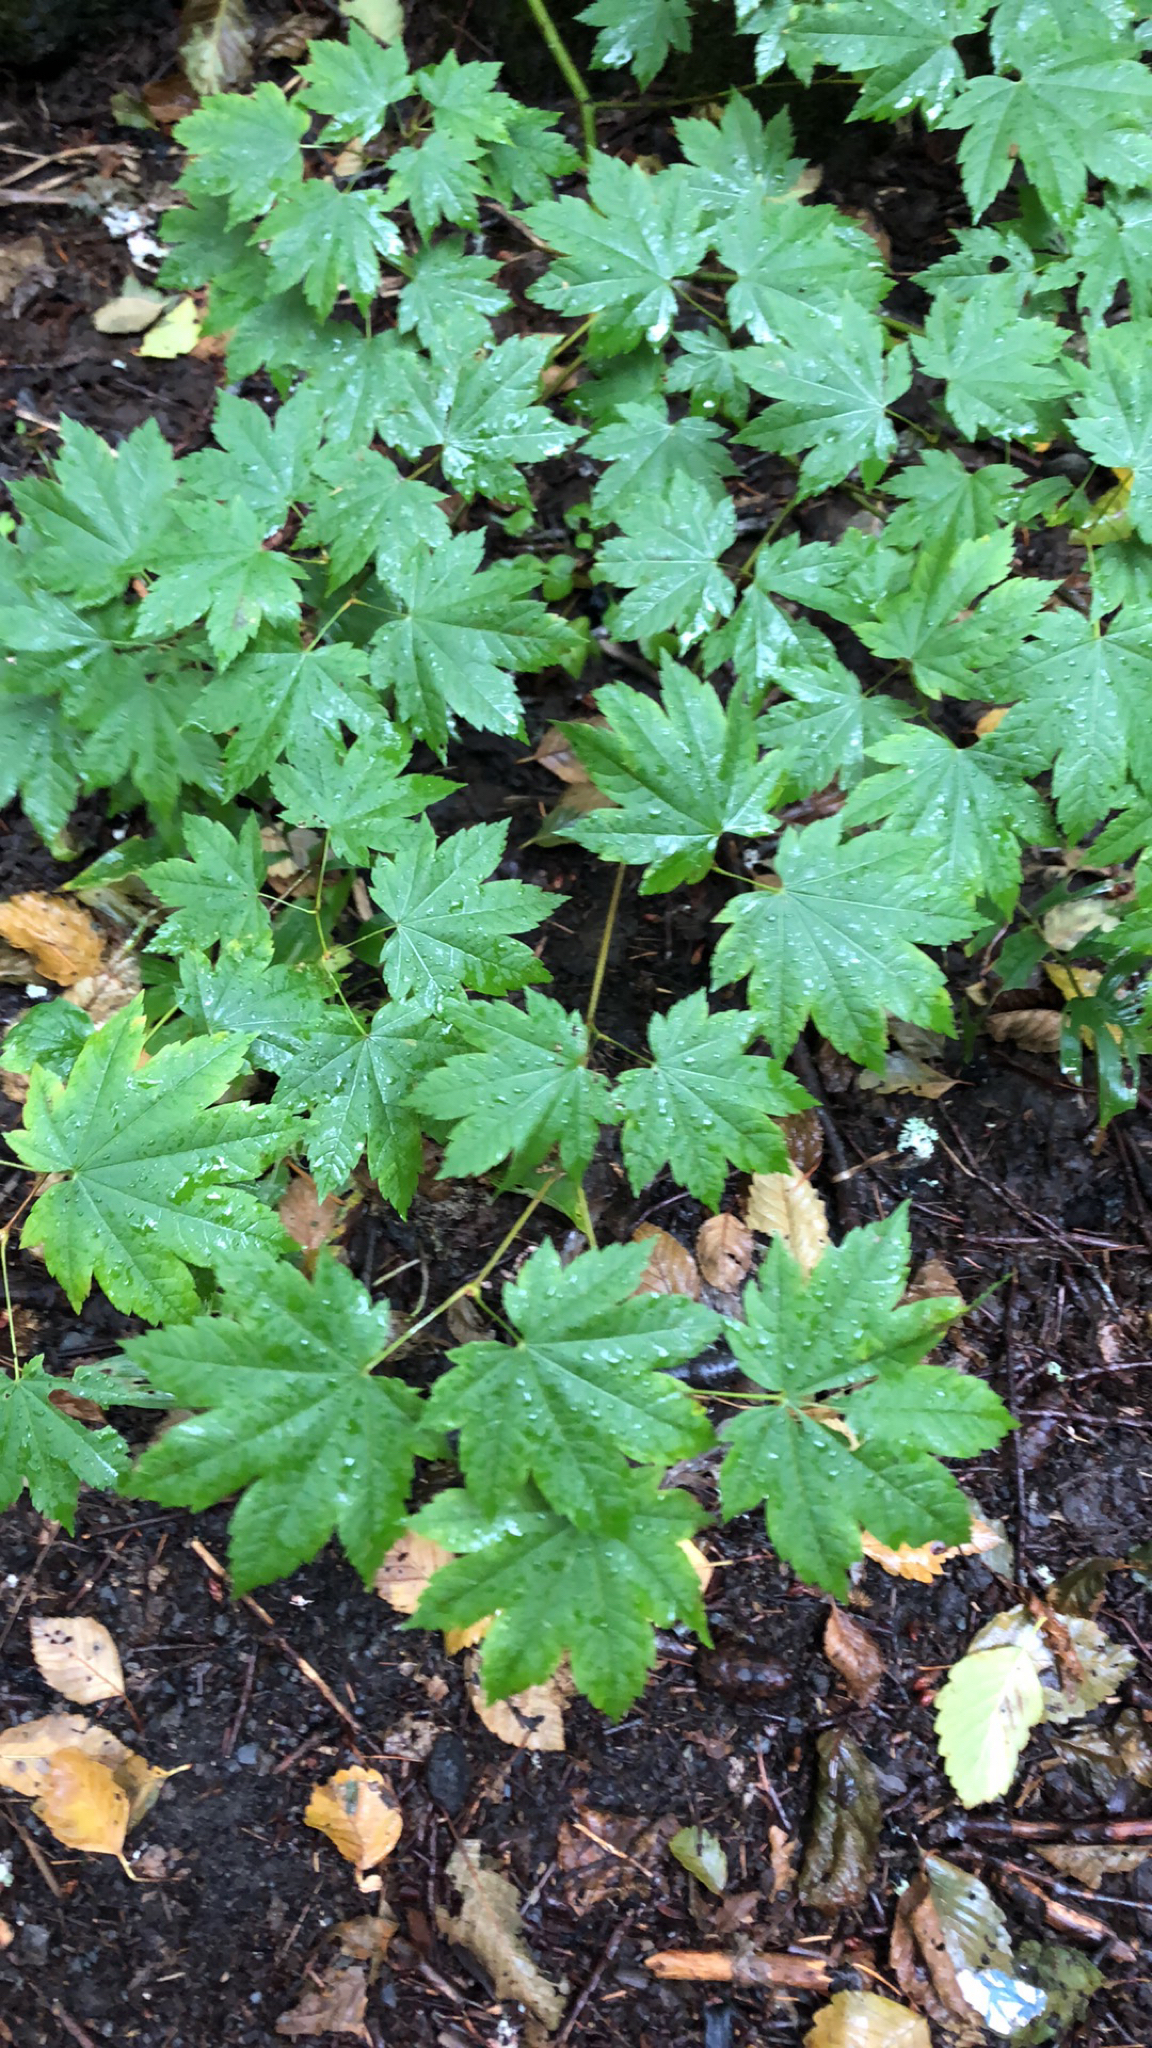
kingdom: Plantae
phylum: Tracheophyta
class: Magnoliopsida
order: Sapindales
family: Sapindaceae
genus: Acer
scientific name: Acer circinatum
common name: Vine maple
